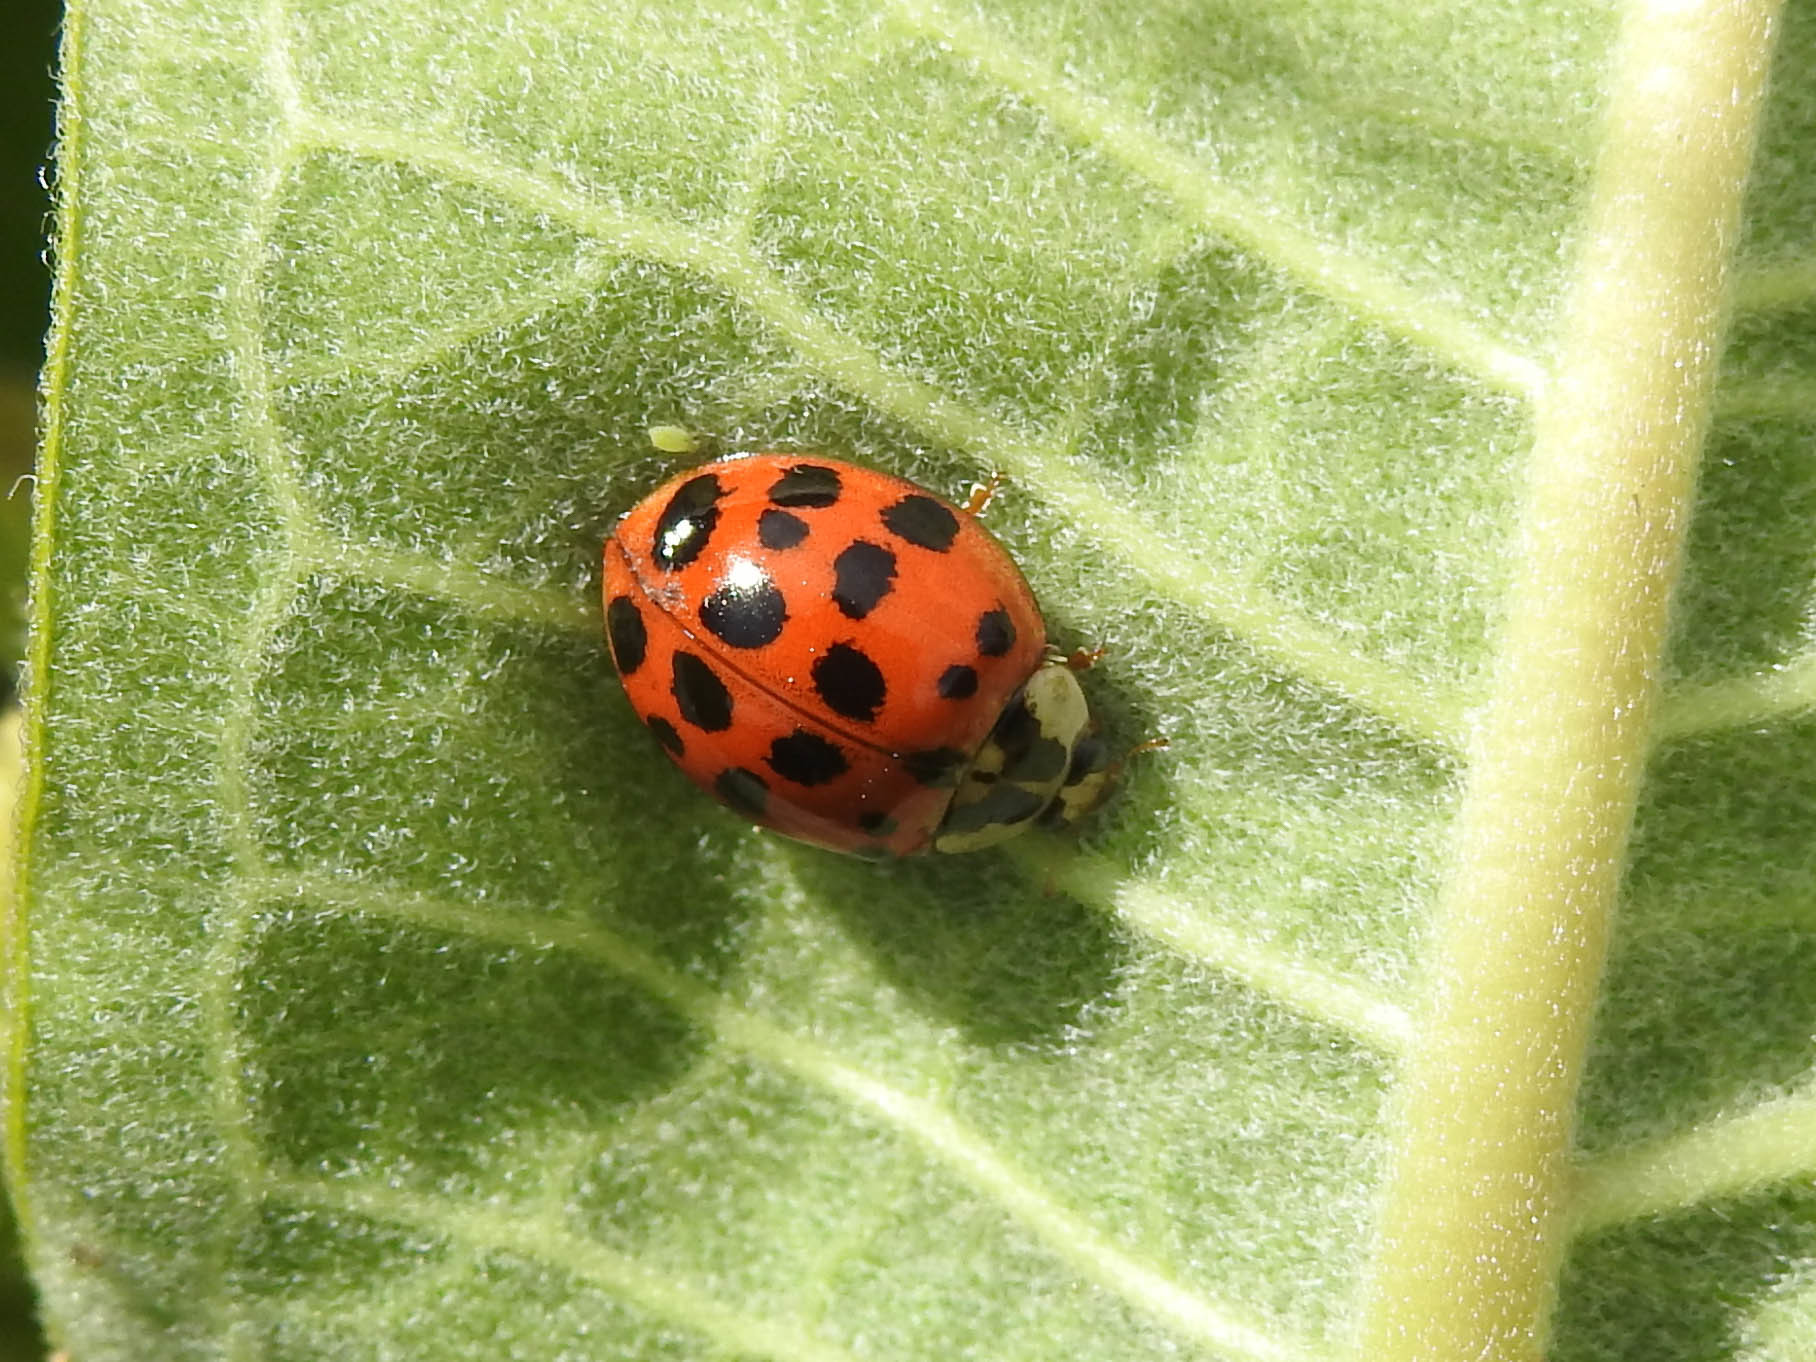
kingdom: Animalia
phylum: Arthropoda
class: Insecta
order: Coleoptera
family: Coccinellidae
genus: Harmonia
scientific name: Harmonia axyridis
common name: Harlequin ladybird
